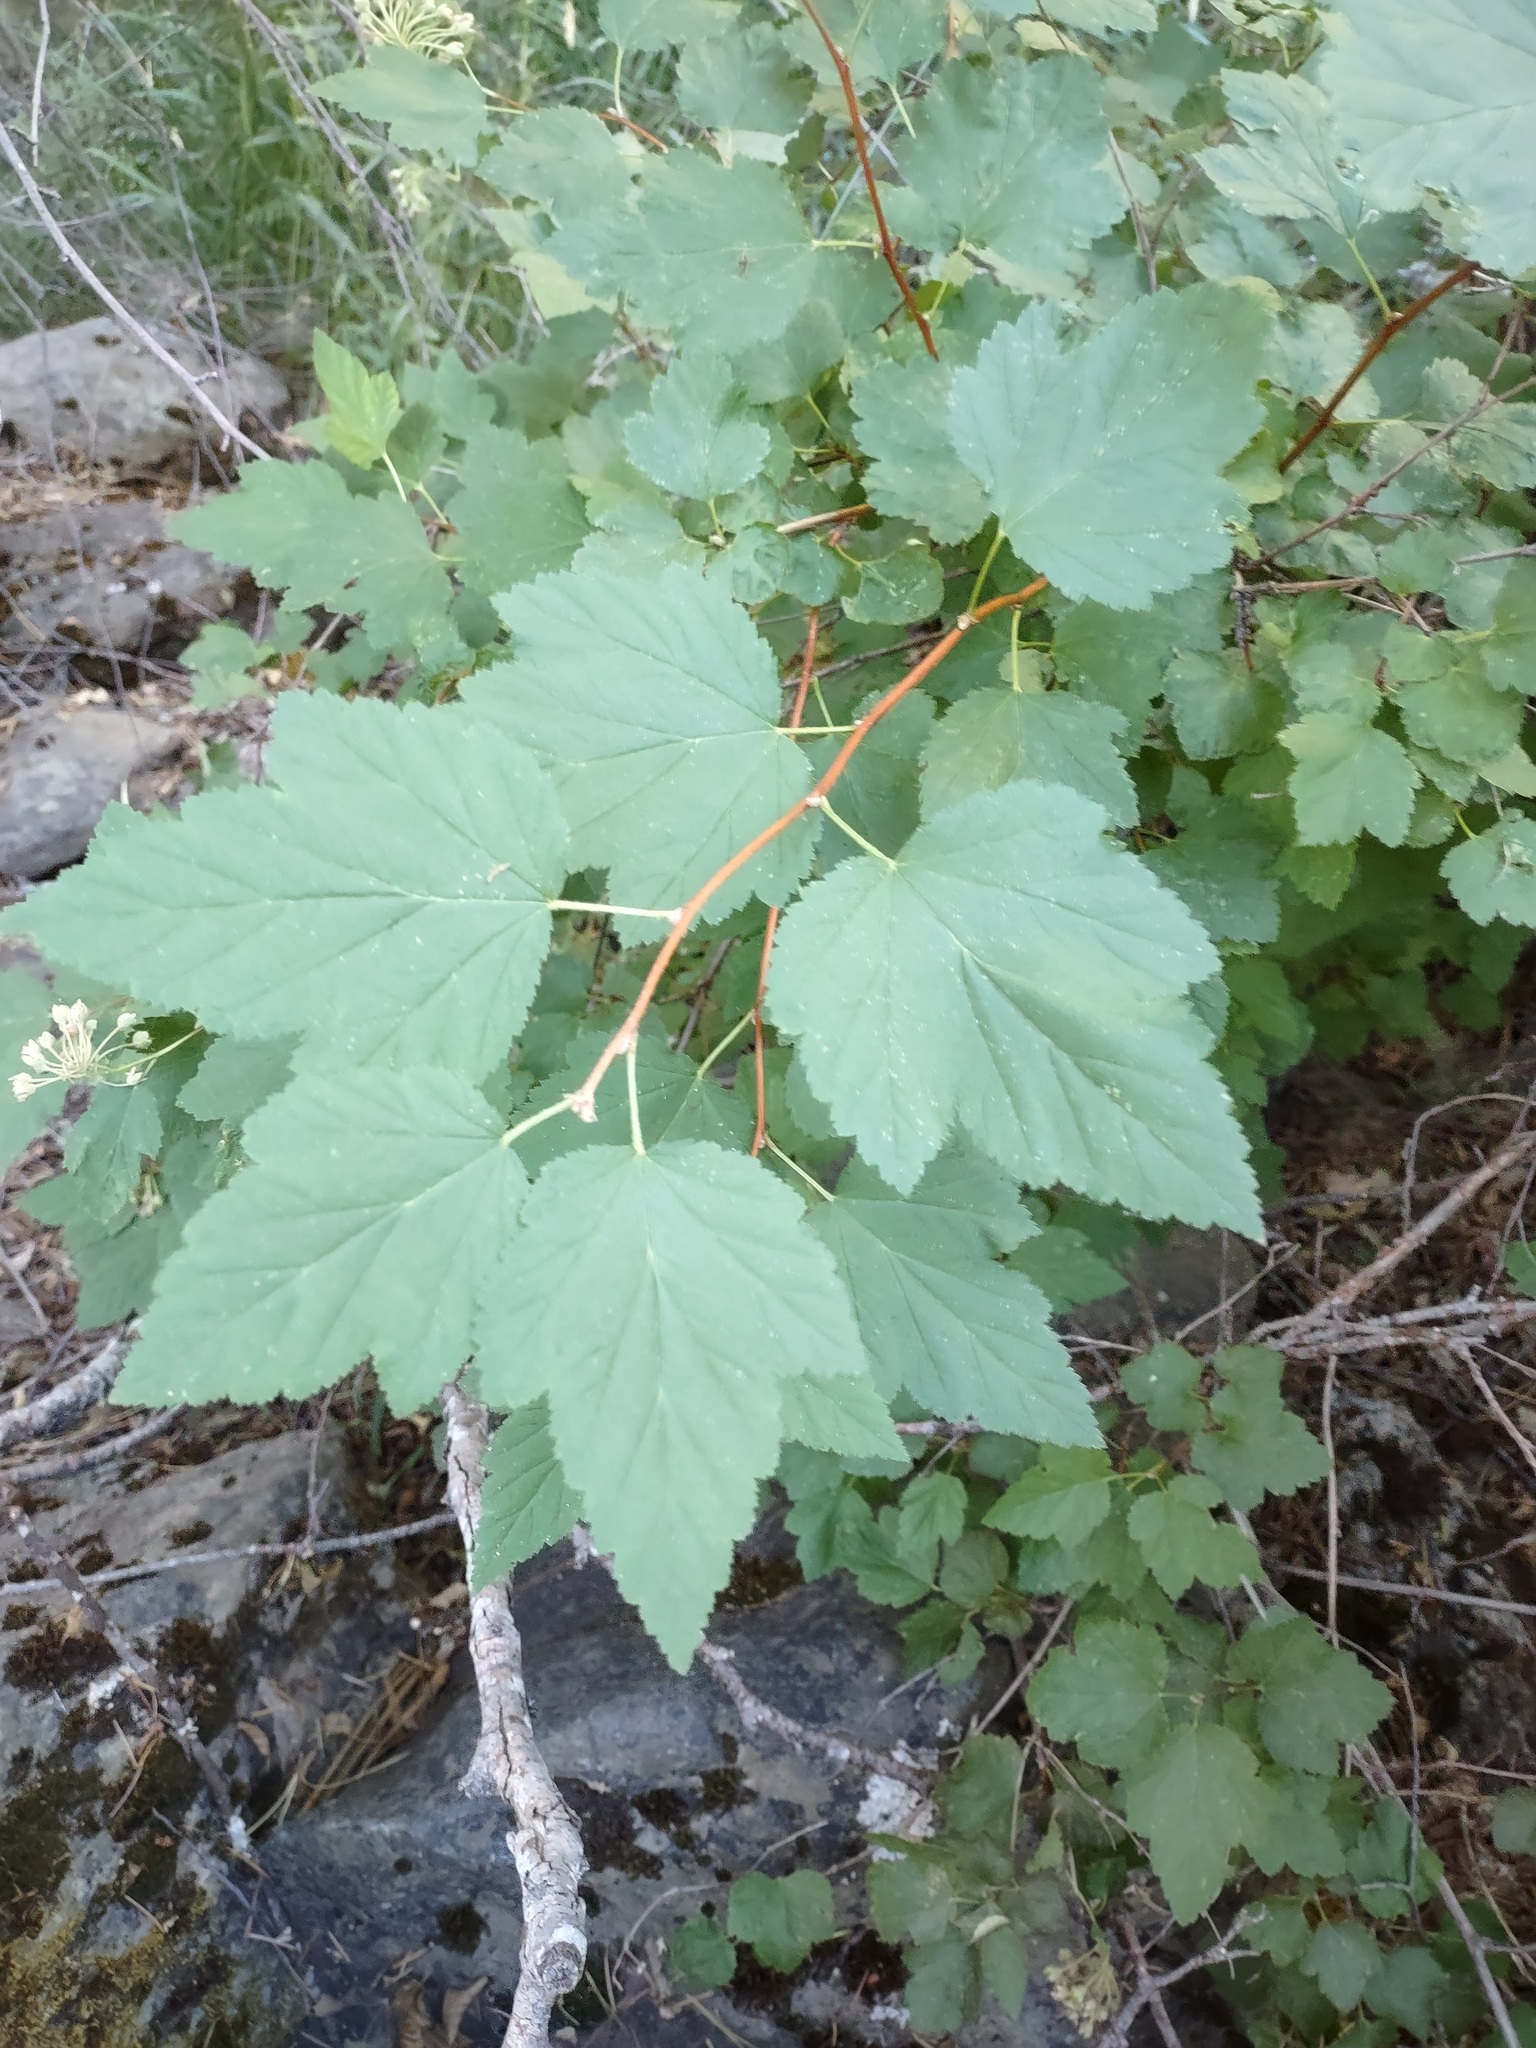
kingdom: Plantae
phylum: Tracheophyta
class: Magnoliopsida
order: Rosales
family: Rosaceae
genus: Physocarpus
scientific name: Physocarpus capitatus
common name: Pacific ninebark
